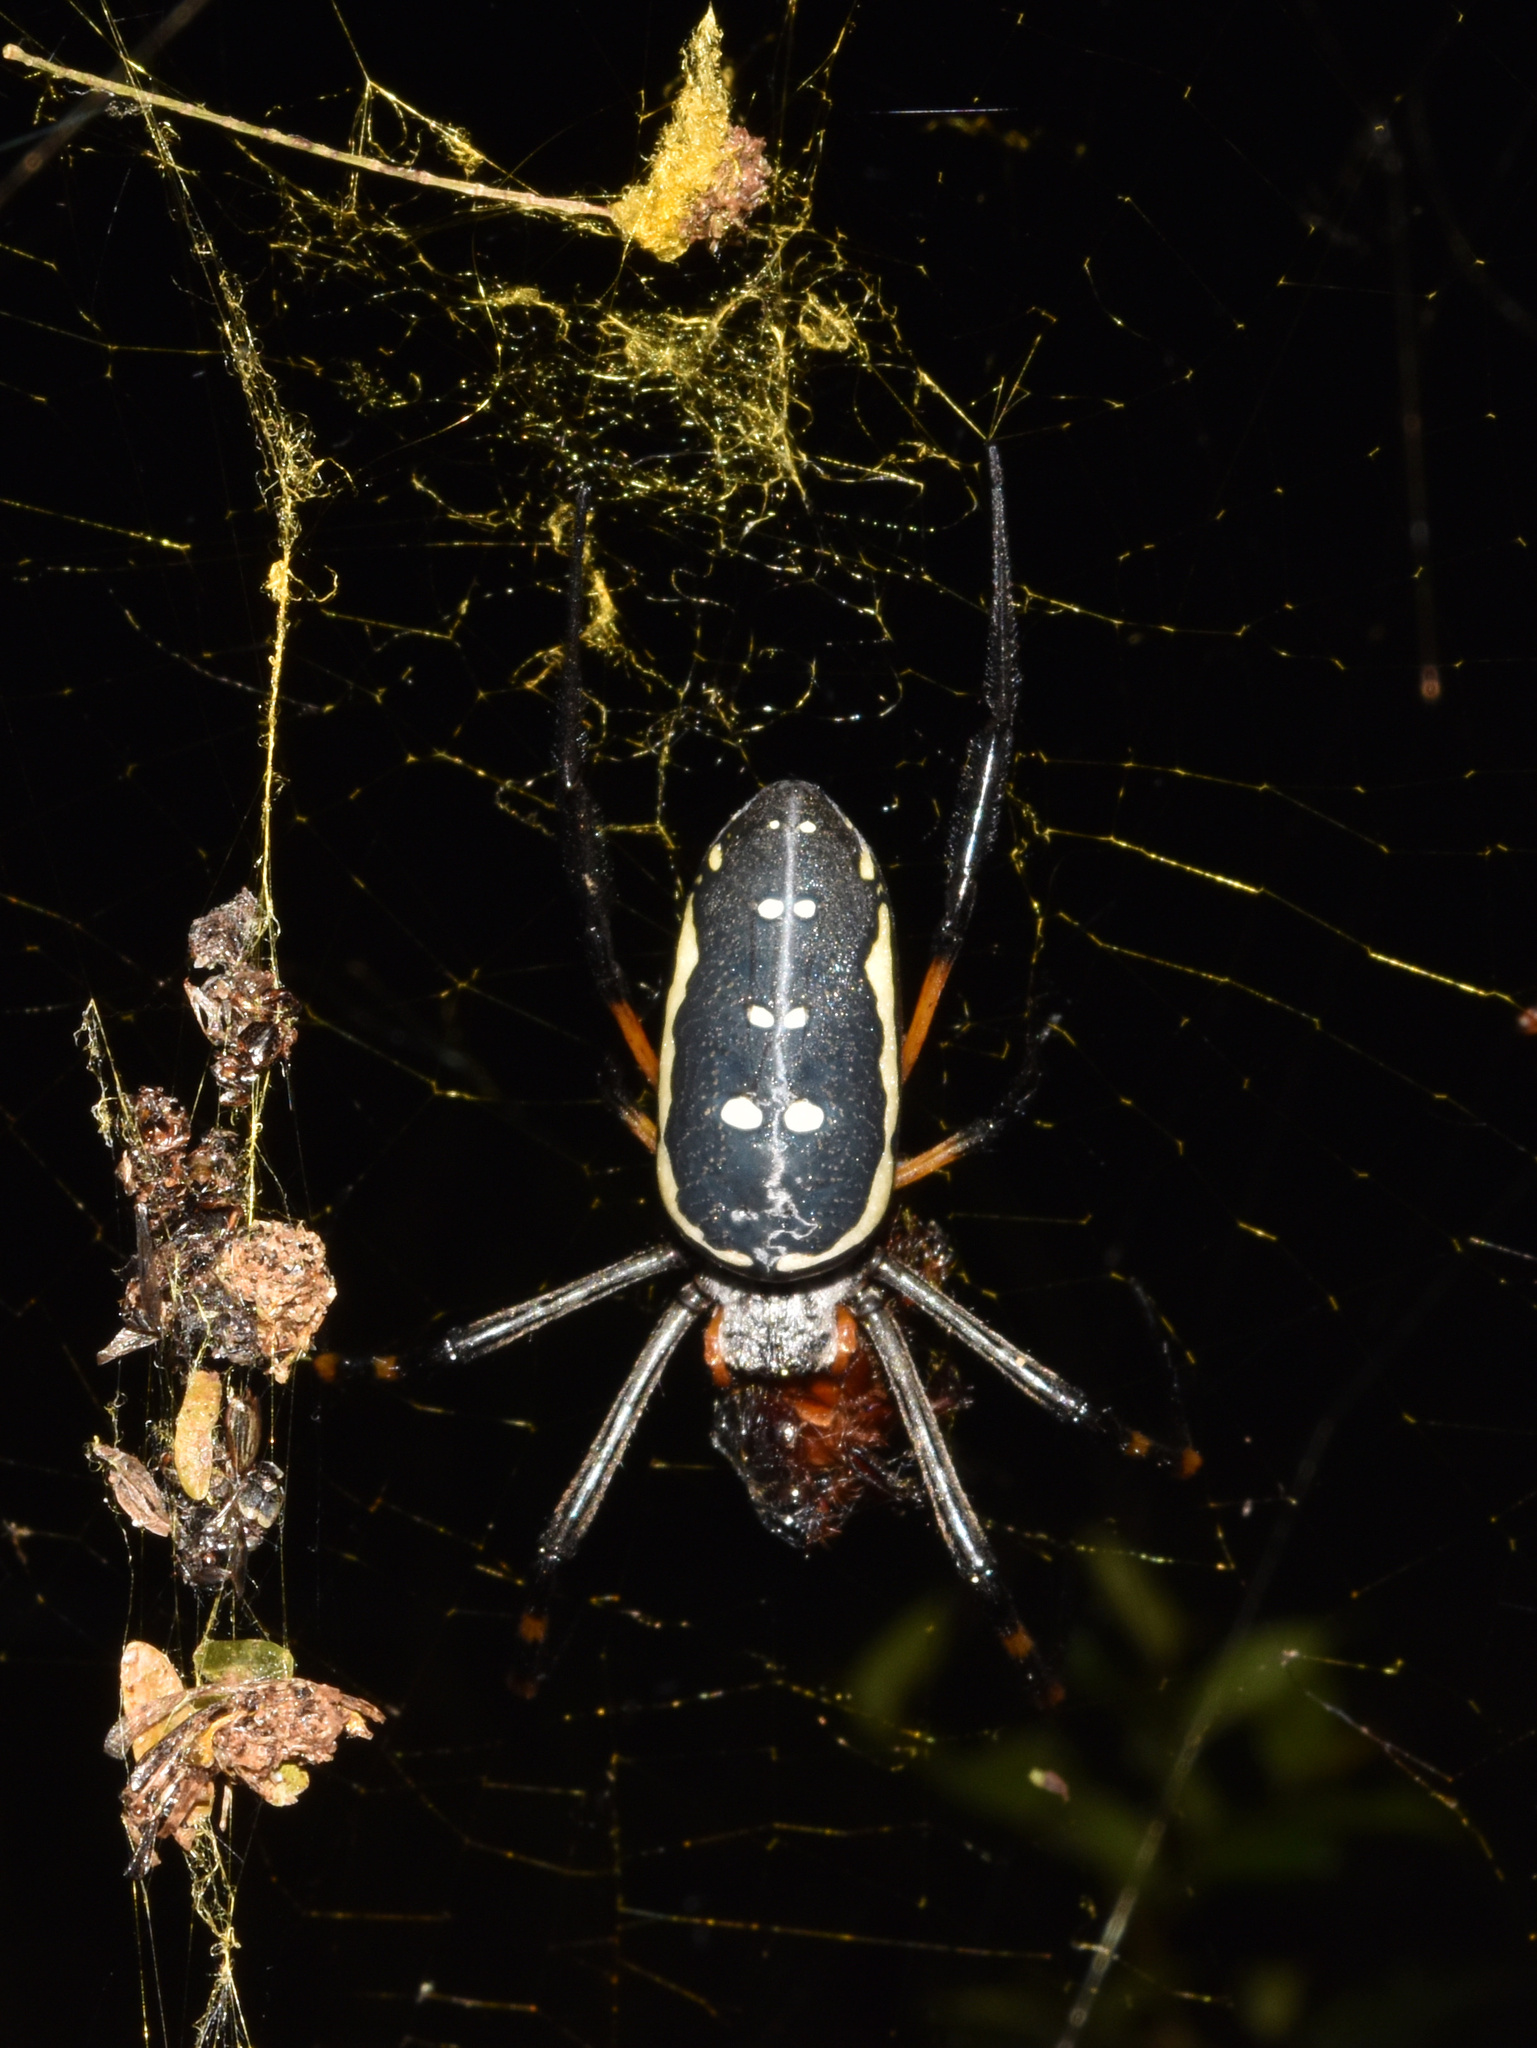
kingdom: Animalia
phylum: Arthropoda
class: Arachnida
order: Araneae
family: Araneidae
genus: Trichonephila
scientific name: Trichonephila senegalensis
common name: Banded golden orb weaver
